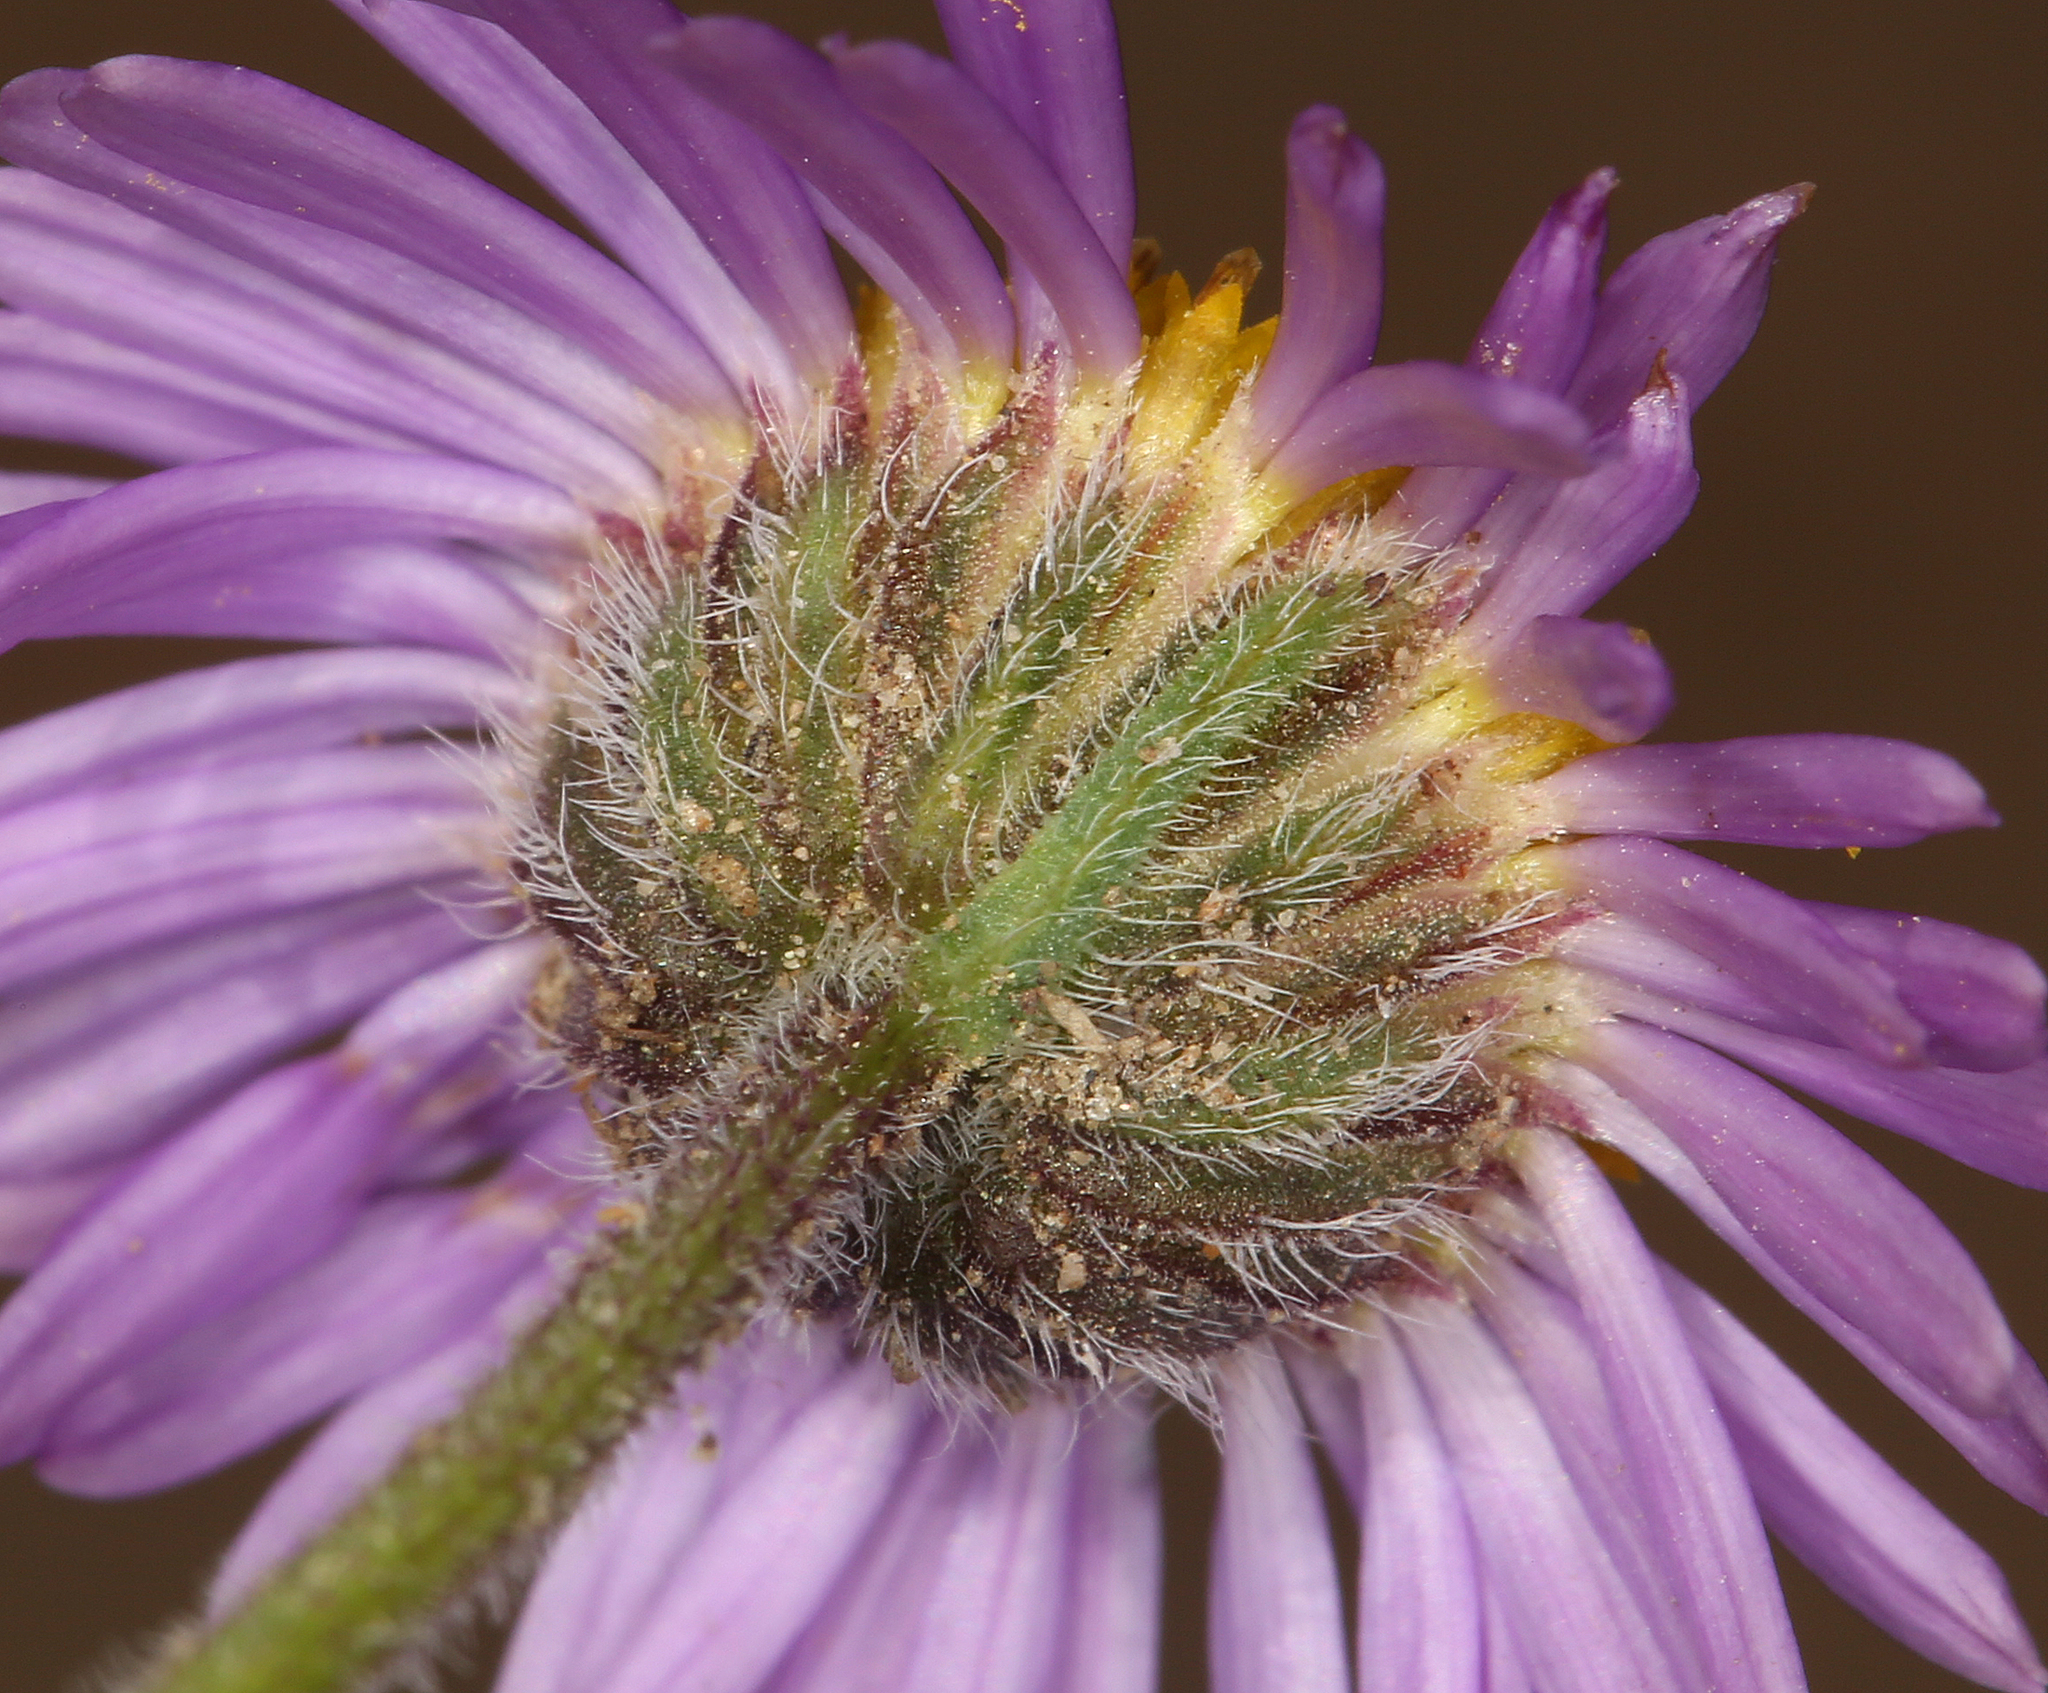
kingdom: Plantae
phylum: Tracheophyta
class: Magnoliopsida
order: Asterales
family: Asteraceae
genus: Erigeron
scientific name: Erigeron clokeyi
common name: Clokey's fleabane
